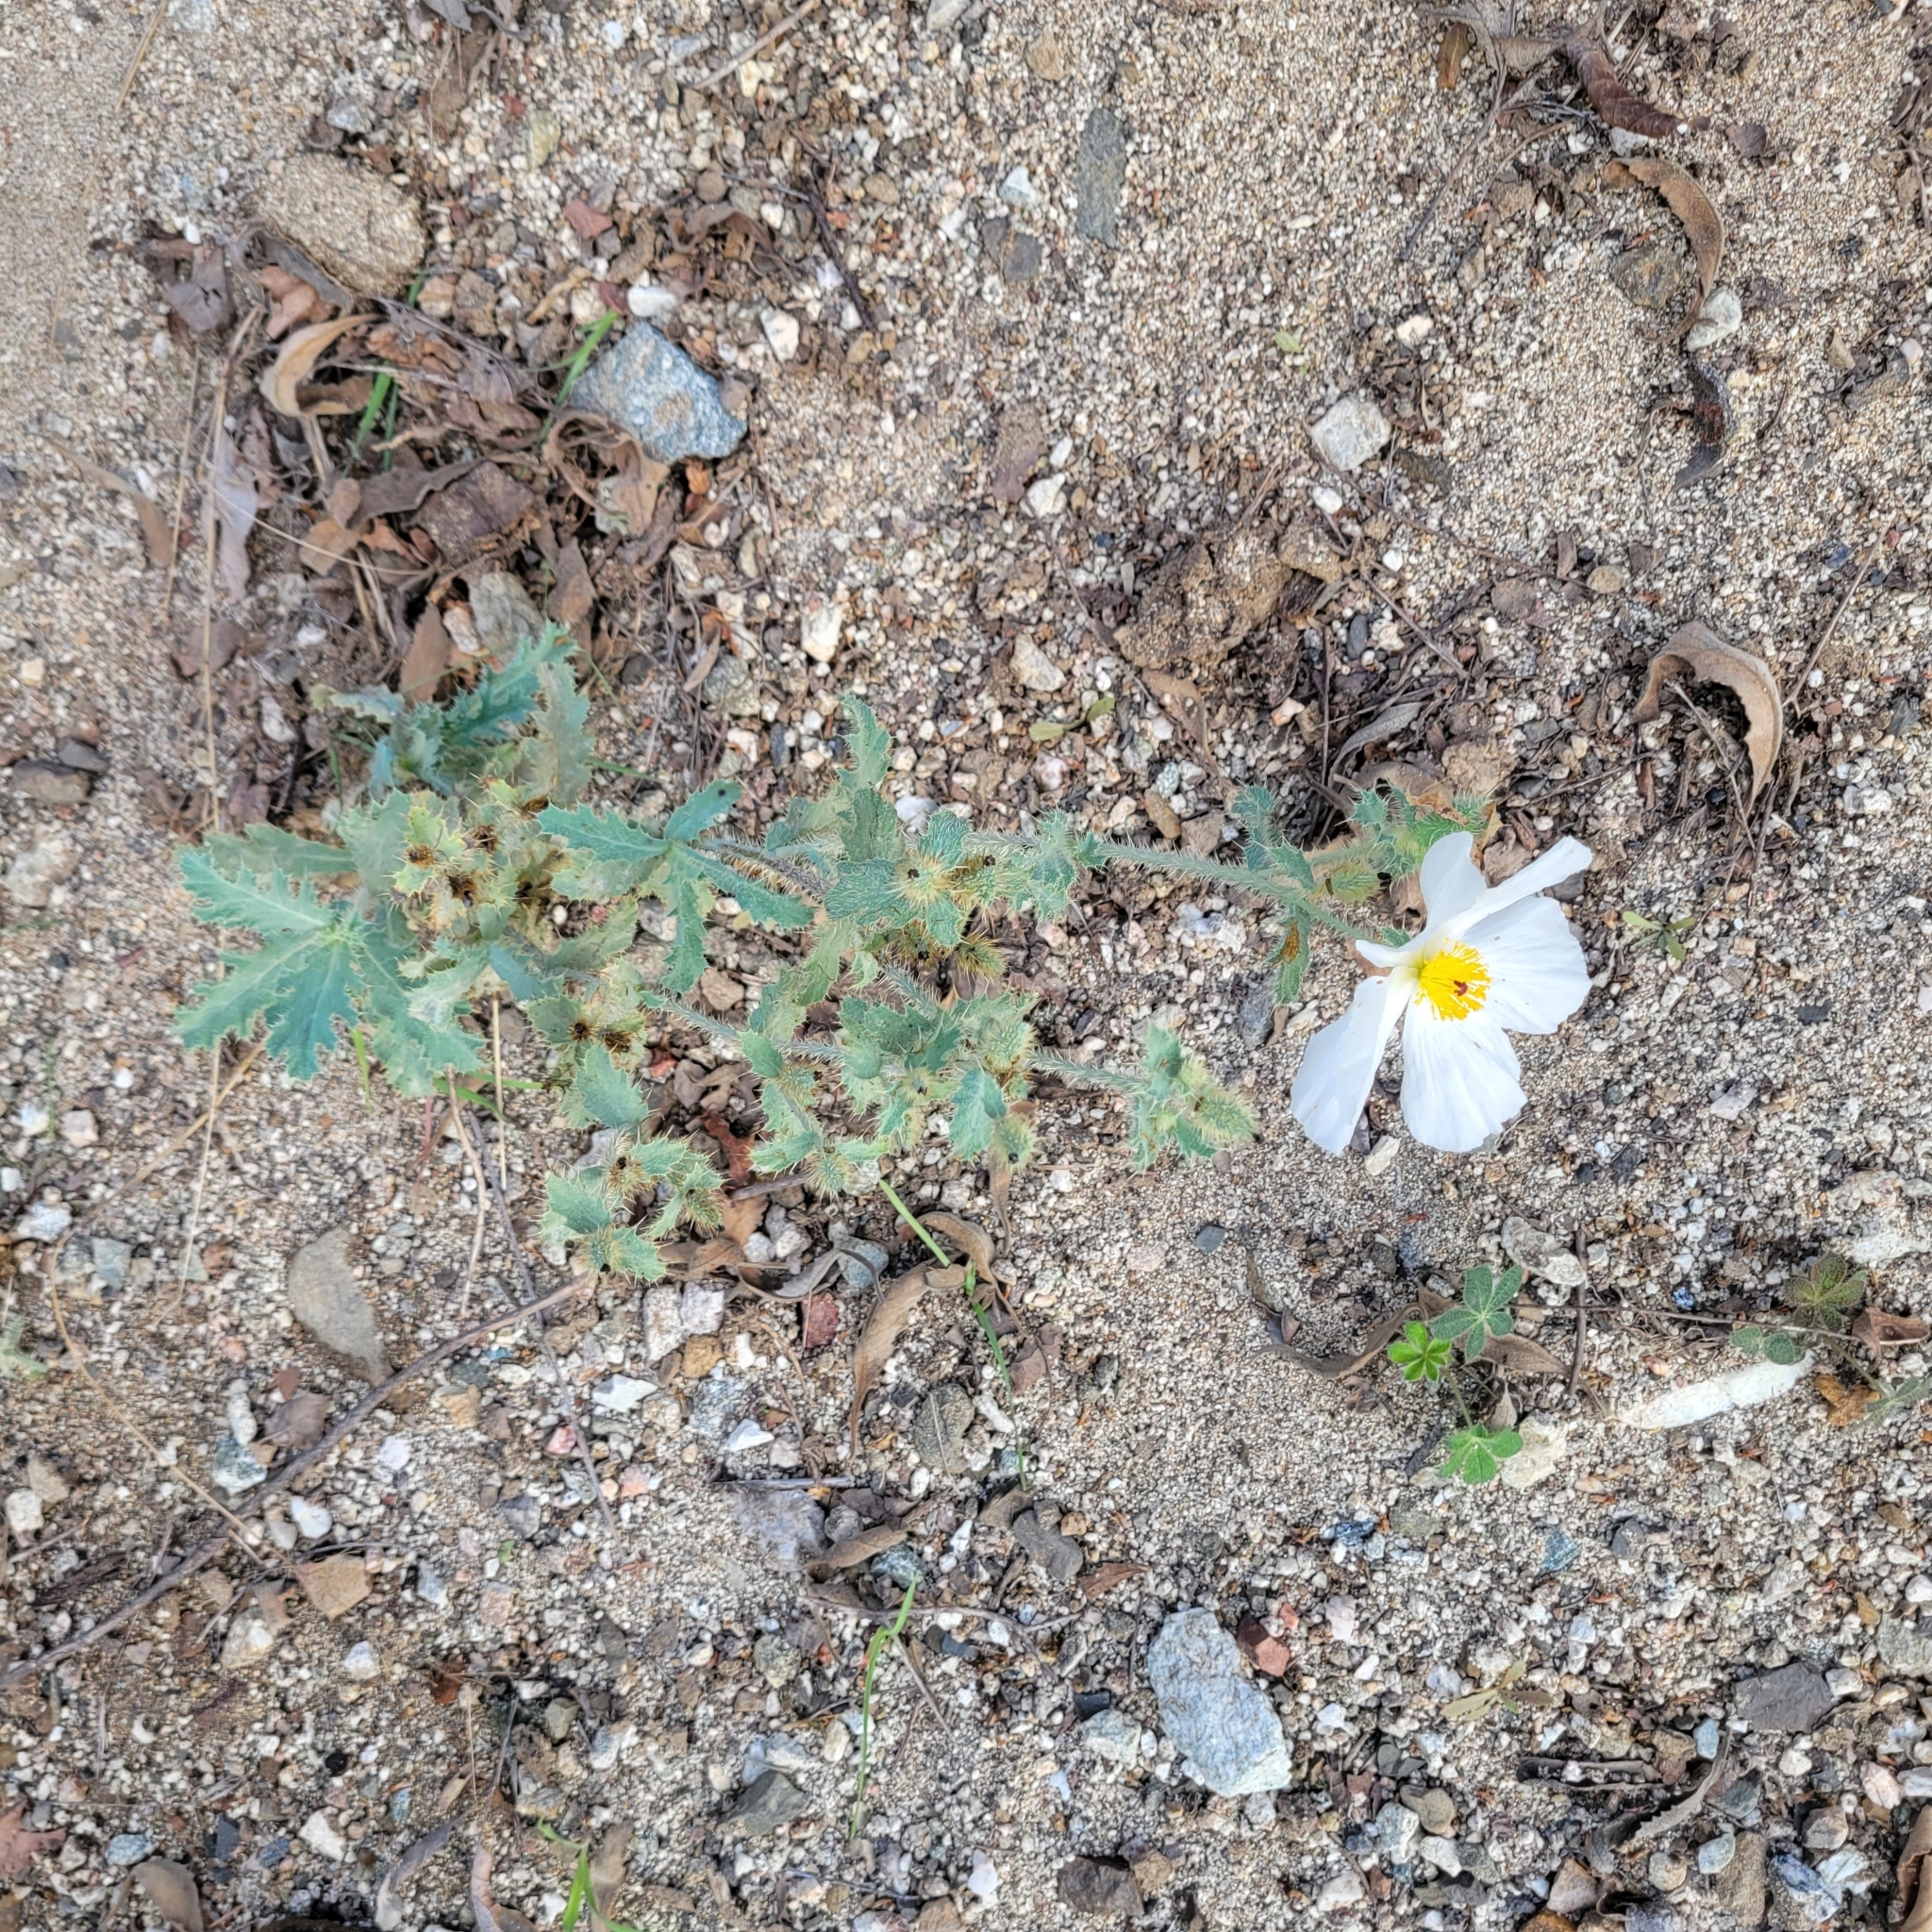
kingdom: Plantae
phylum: Tracheophyta
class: Magnoliopsida
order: Ranunculales
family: Papaveraceae
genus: Argemone
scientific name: Argemone munita
